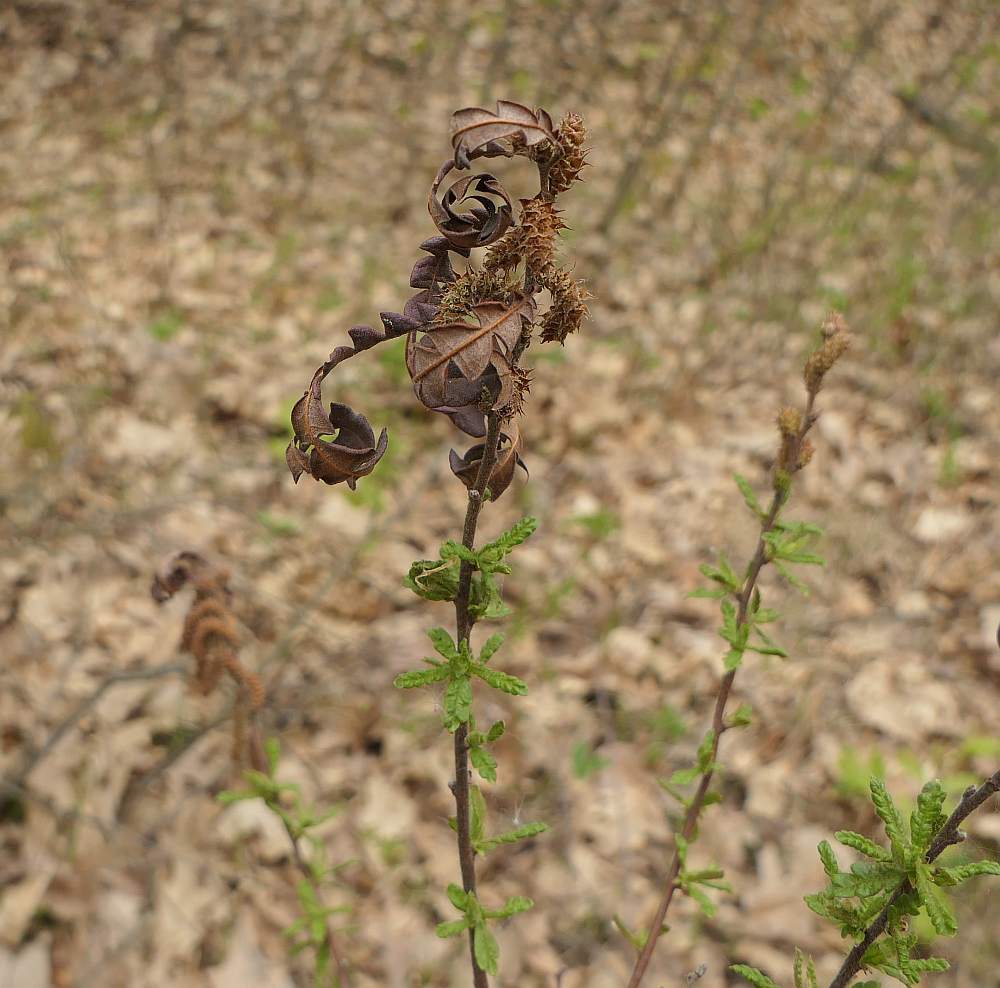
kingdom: Plantae
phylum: Tracheophyta
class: Magnoliopsida
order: Fagales
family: Myricaceae
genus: Comptonia
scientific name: Comptonia peregrina
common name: Sweet-fern
